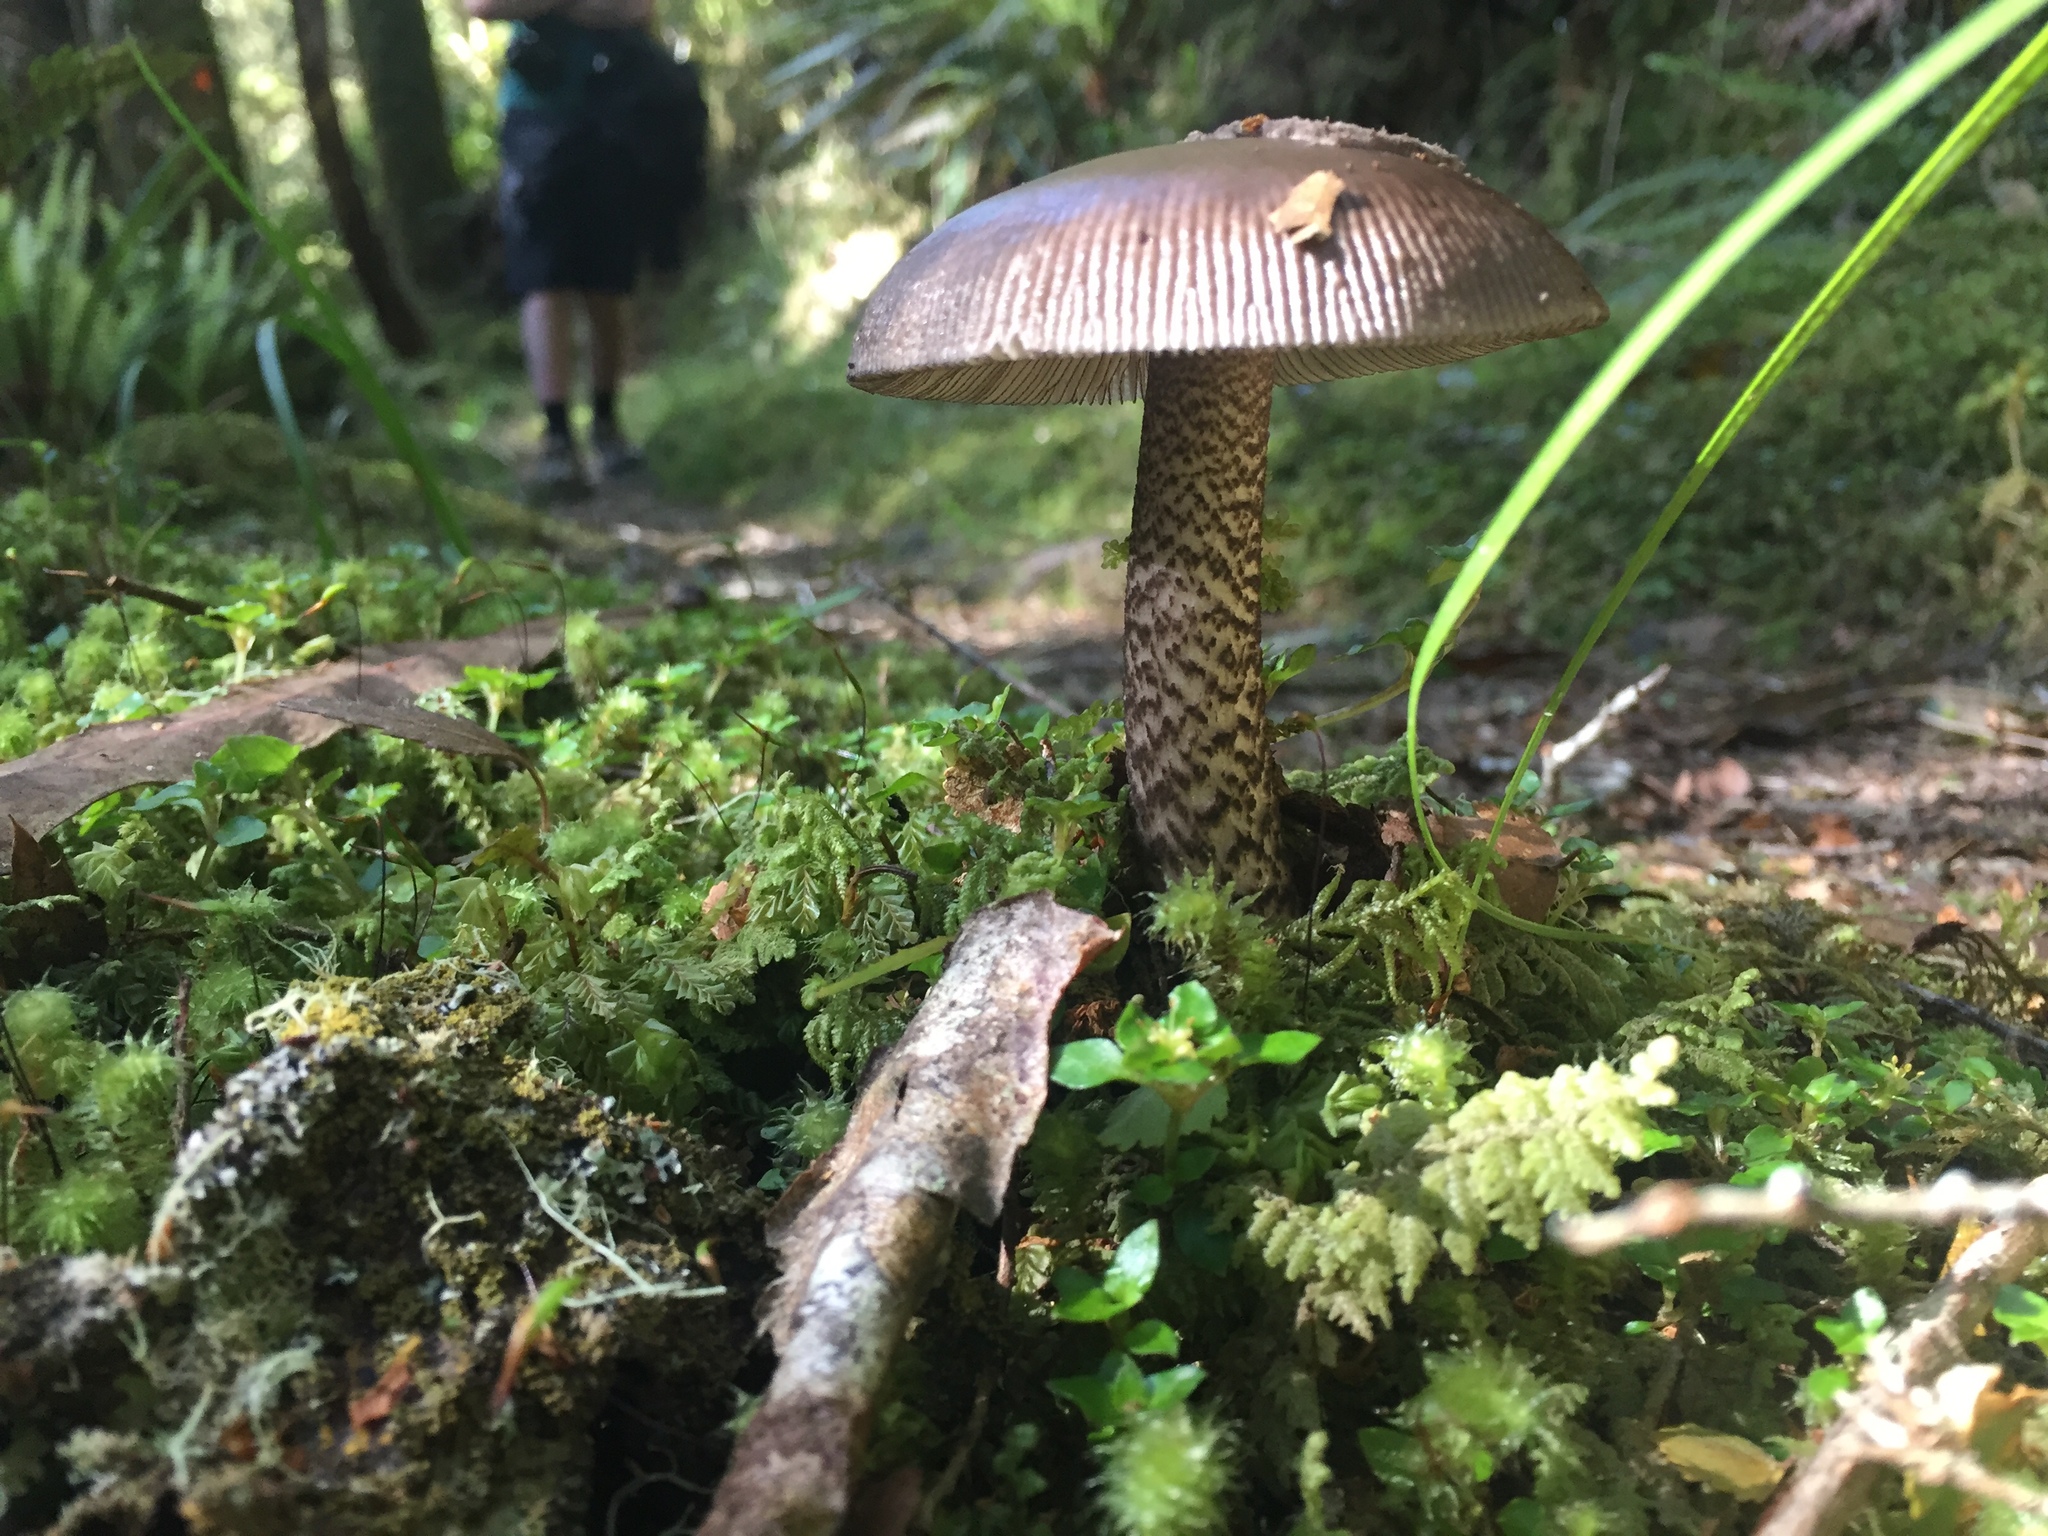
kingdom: Fungi
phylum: Basidiomycota
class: Agaricomycetes
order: Agaricales
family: Amanitaceae
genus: Amanita
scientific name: Amanita pekeoides
